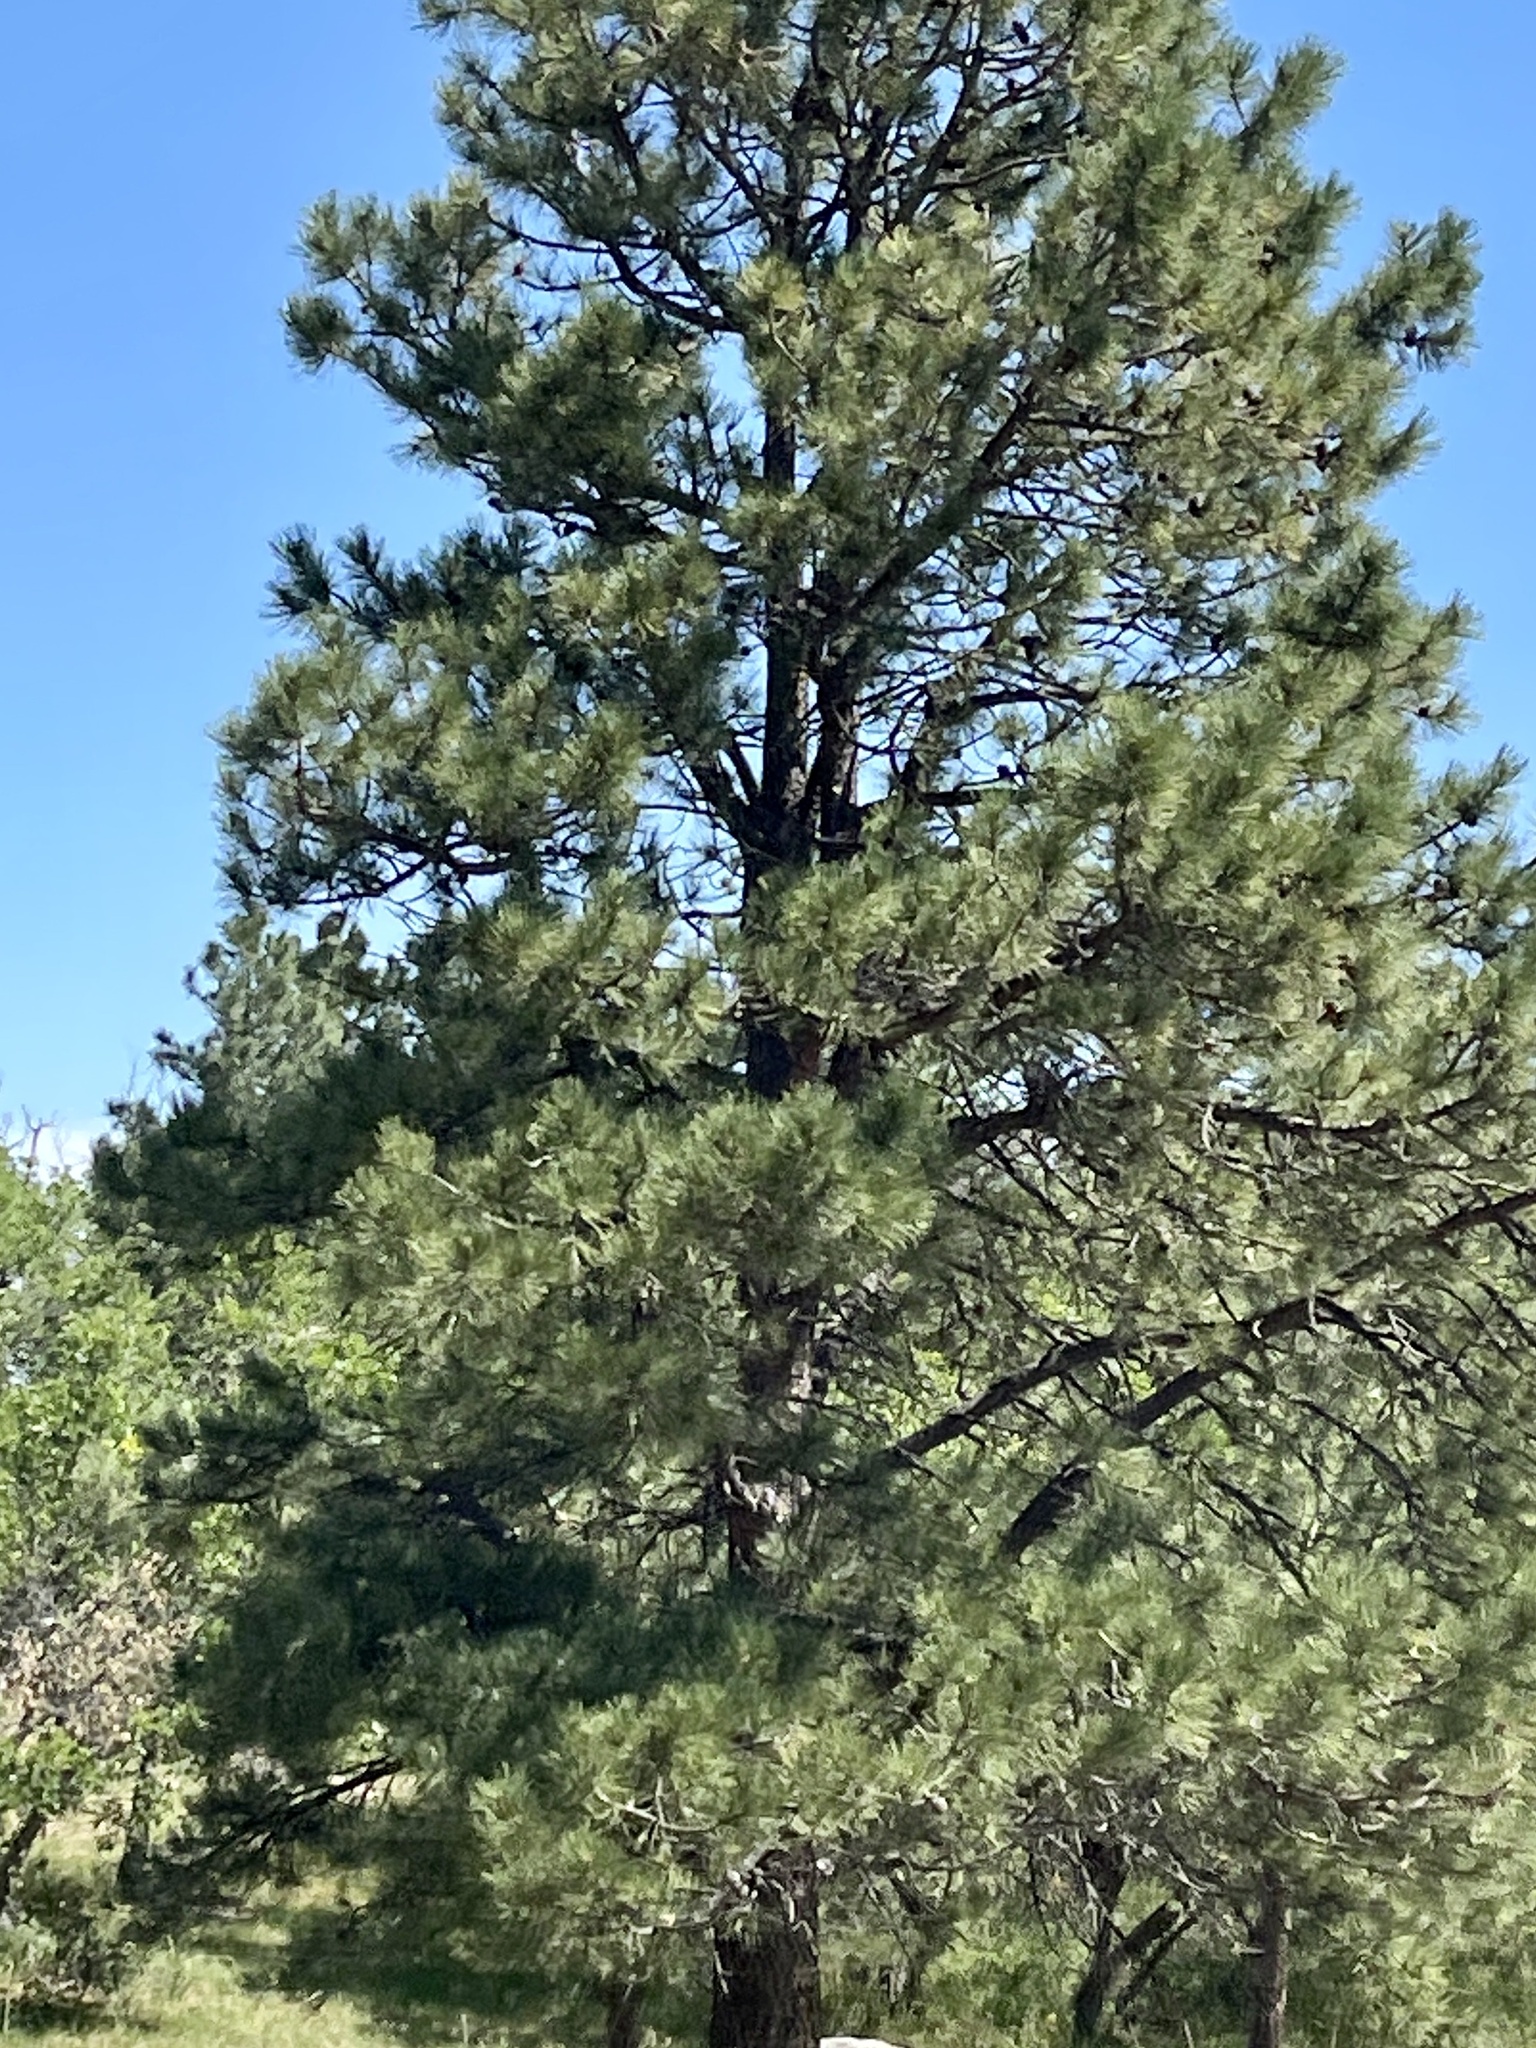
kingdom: Plantae
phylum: Tracheophyta
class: Pinopsida
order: Pinales
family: Pinaceae
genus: Pinus
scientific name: Pinus ponderosa
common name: Western yellow-pine
